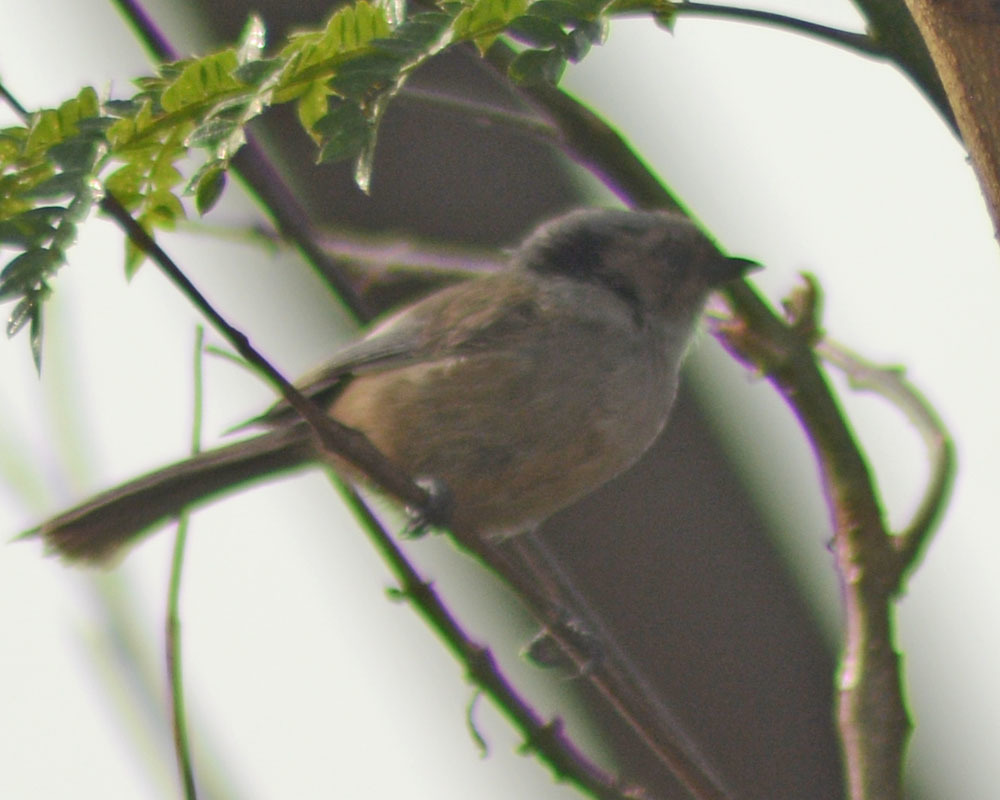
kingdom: Animalia
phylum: Chordata
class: Aves
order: Passeriformes
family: Aegithalidae
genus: Psaltriparus
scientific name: Psaltriparus minimus
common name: American bushtit
